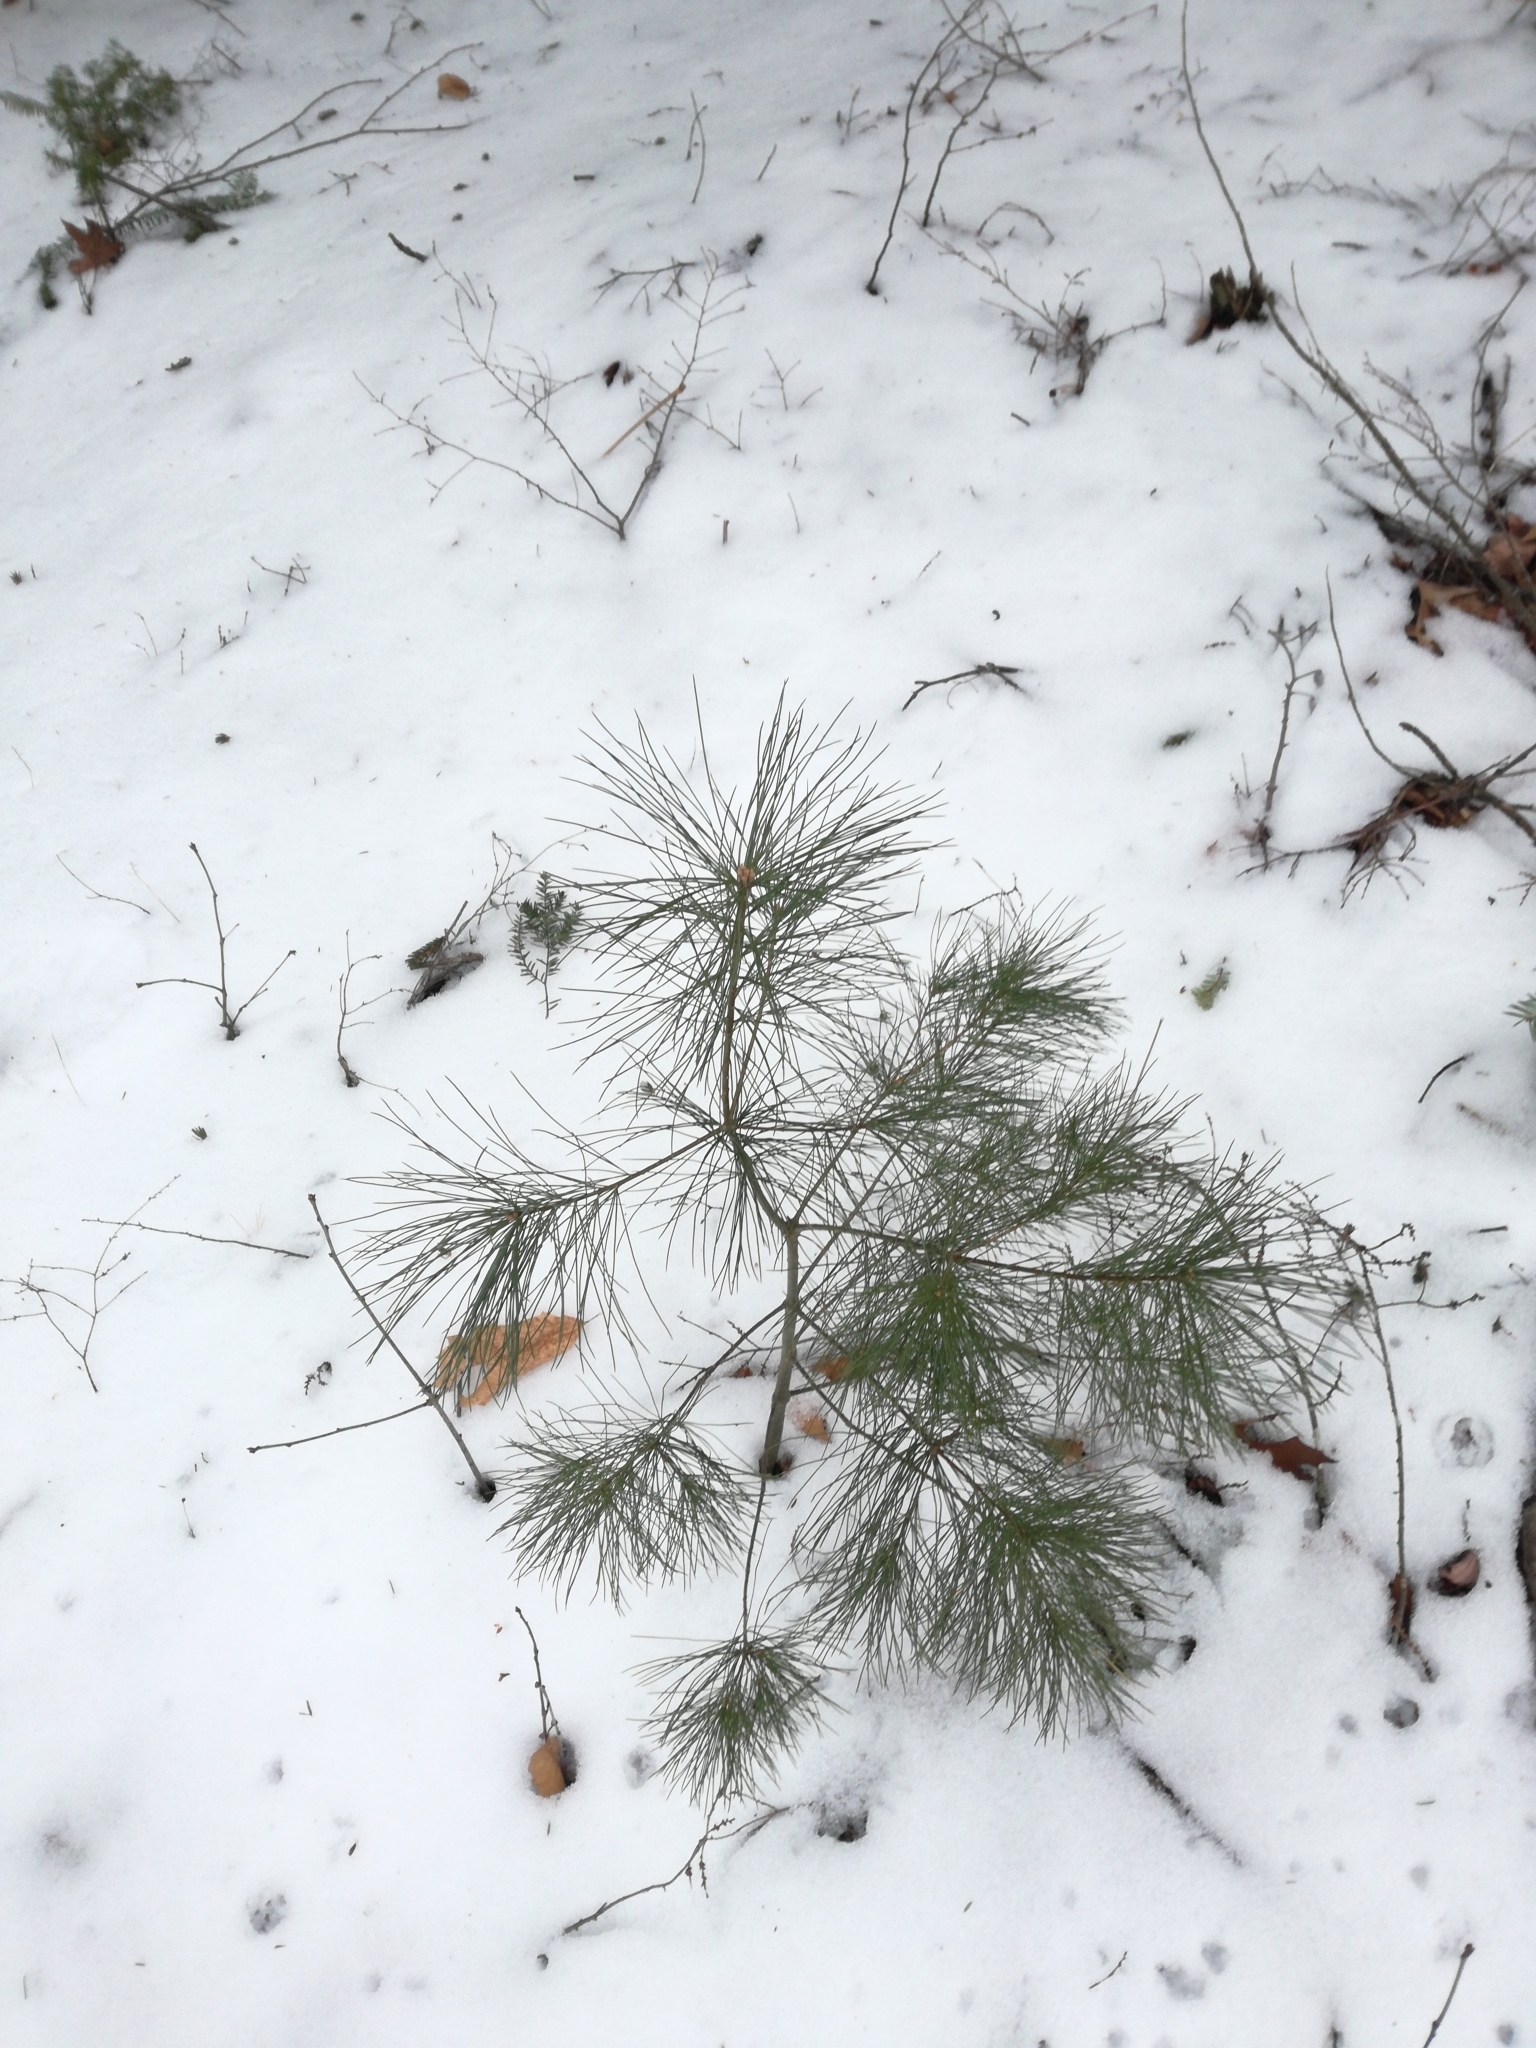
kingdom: Plantae
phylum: Tracheophyta
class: Pinopsida
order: Pinales
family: Pinaceae
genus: Pinus
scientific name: Pinus strobus
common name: Weymouth pine
